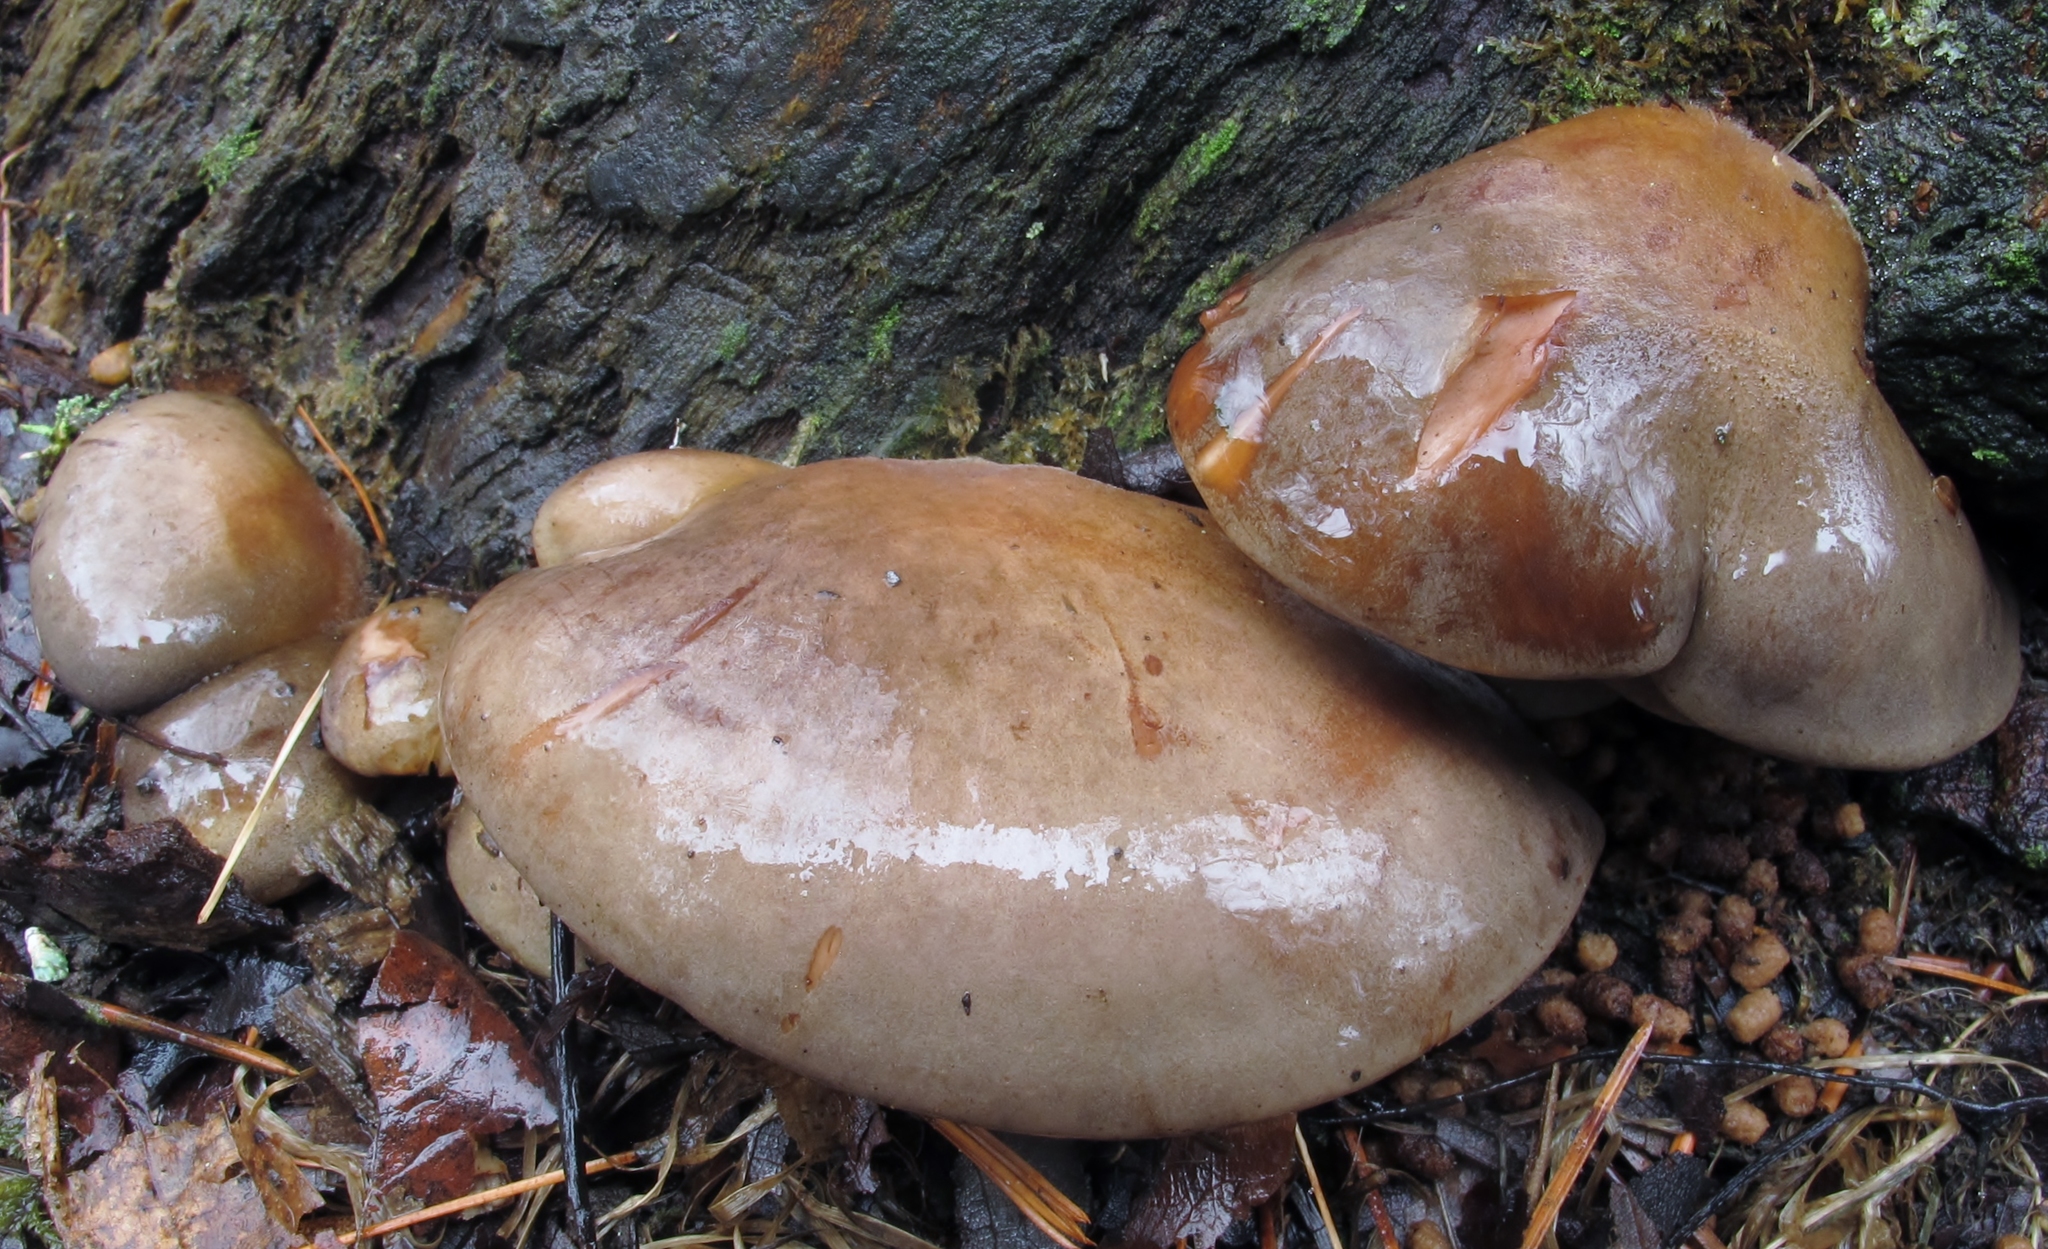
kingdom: Fungi
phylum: Basidiomycota
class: Agaricomycetes
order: Agaricales
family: Sarcomyxaceae
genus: Sarcomyxa
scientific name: Sarcomyxa serotina
